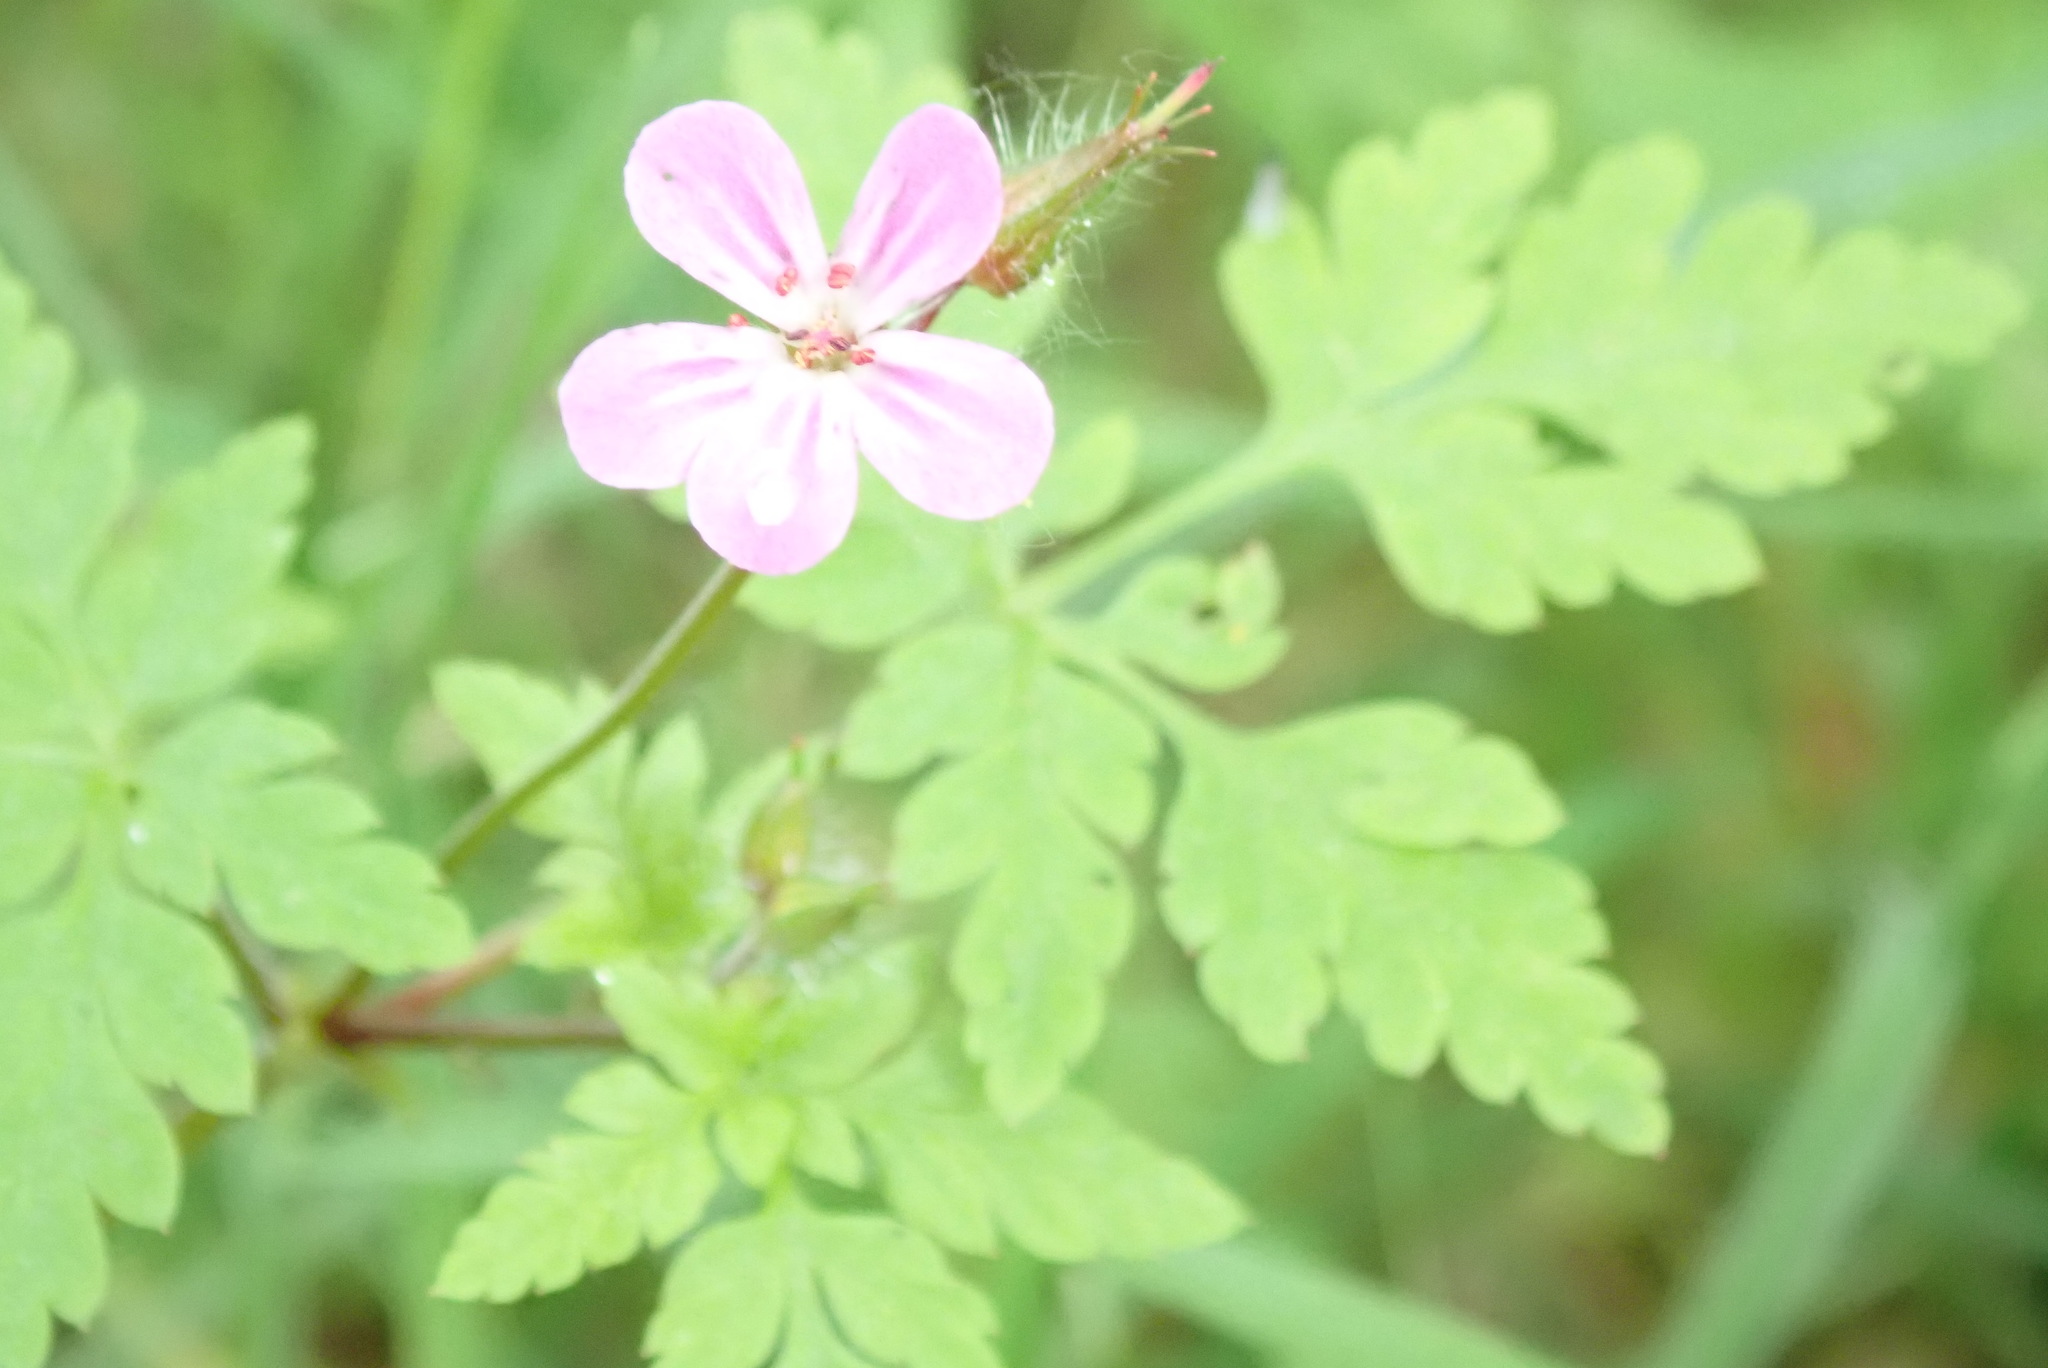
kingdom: Plantae
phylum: Tracheophyta
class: Magnoliopsida
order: Geraniales
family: Geraniaceae
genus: Geranium
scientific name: Geranium robertianum
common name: Herb-robert
